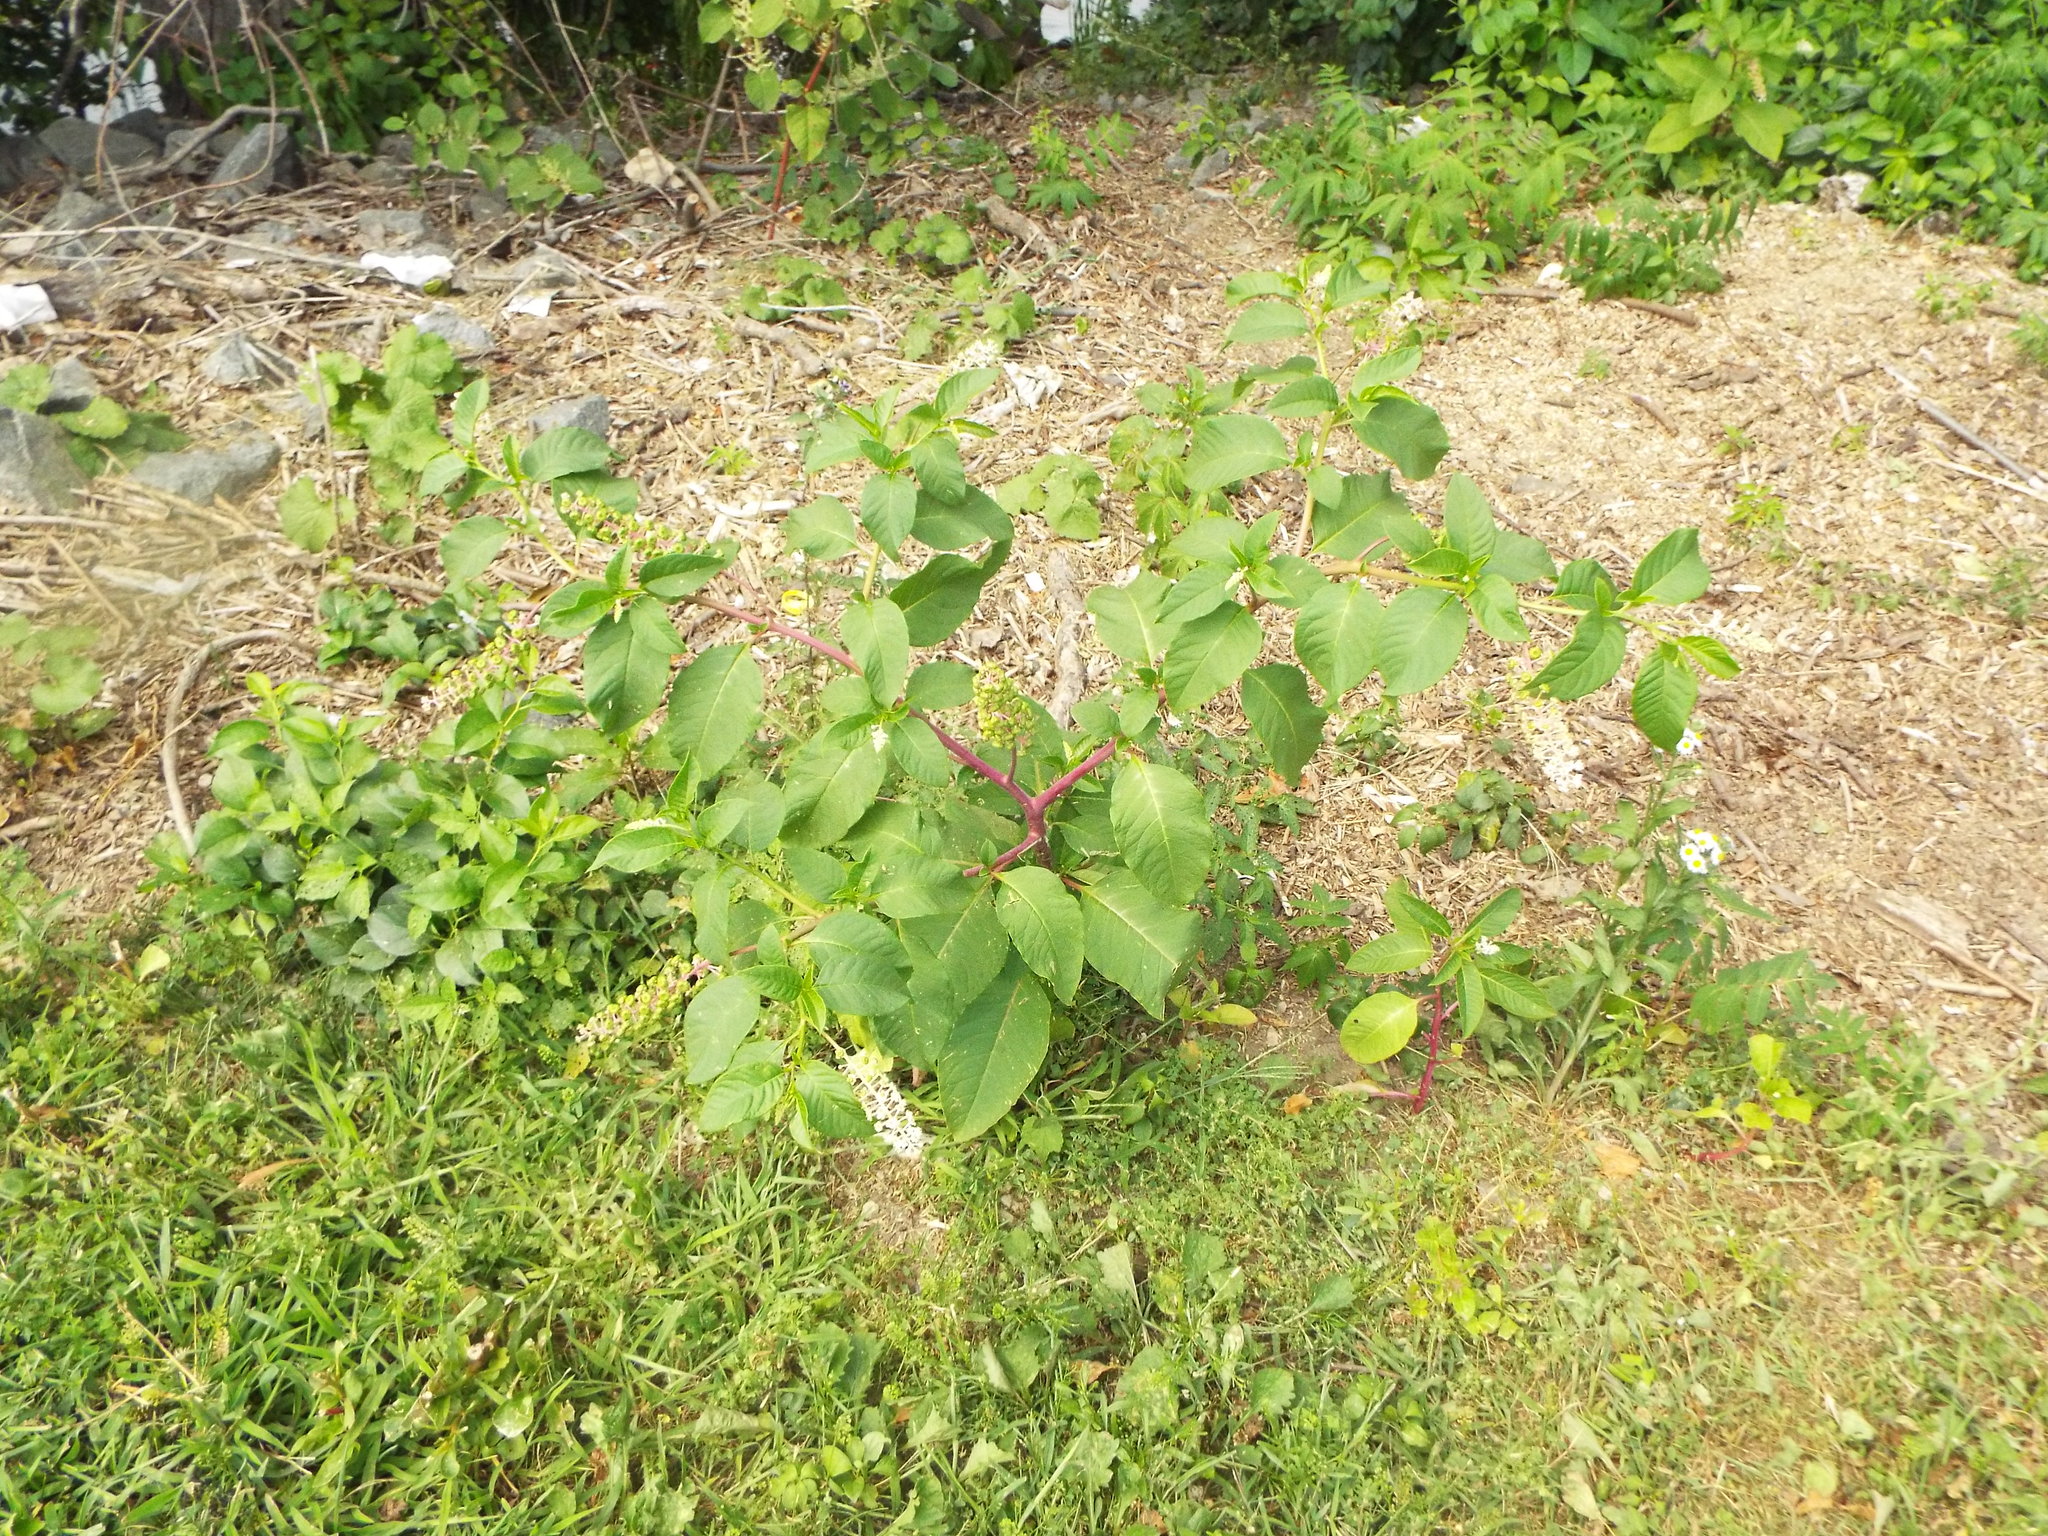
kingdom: Plantae
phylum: Tracheophyta
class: Magnoliopsida
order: Caryophyllales
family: Phytolaccaceae
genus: Phytolacca
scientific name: Phytolacca americana
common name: American pokeweed
